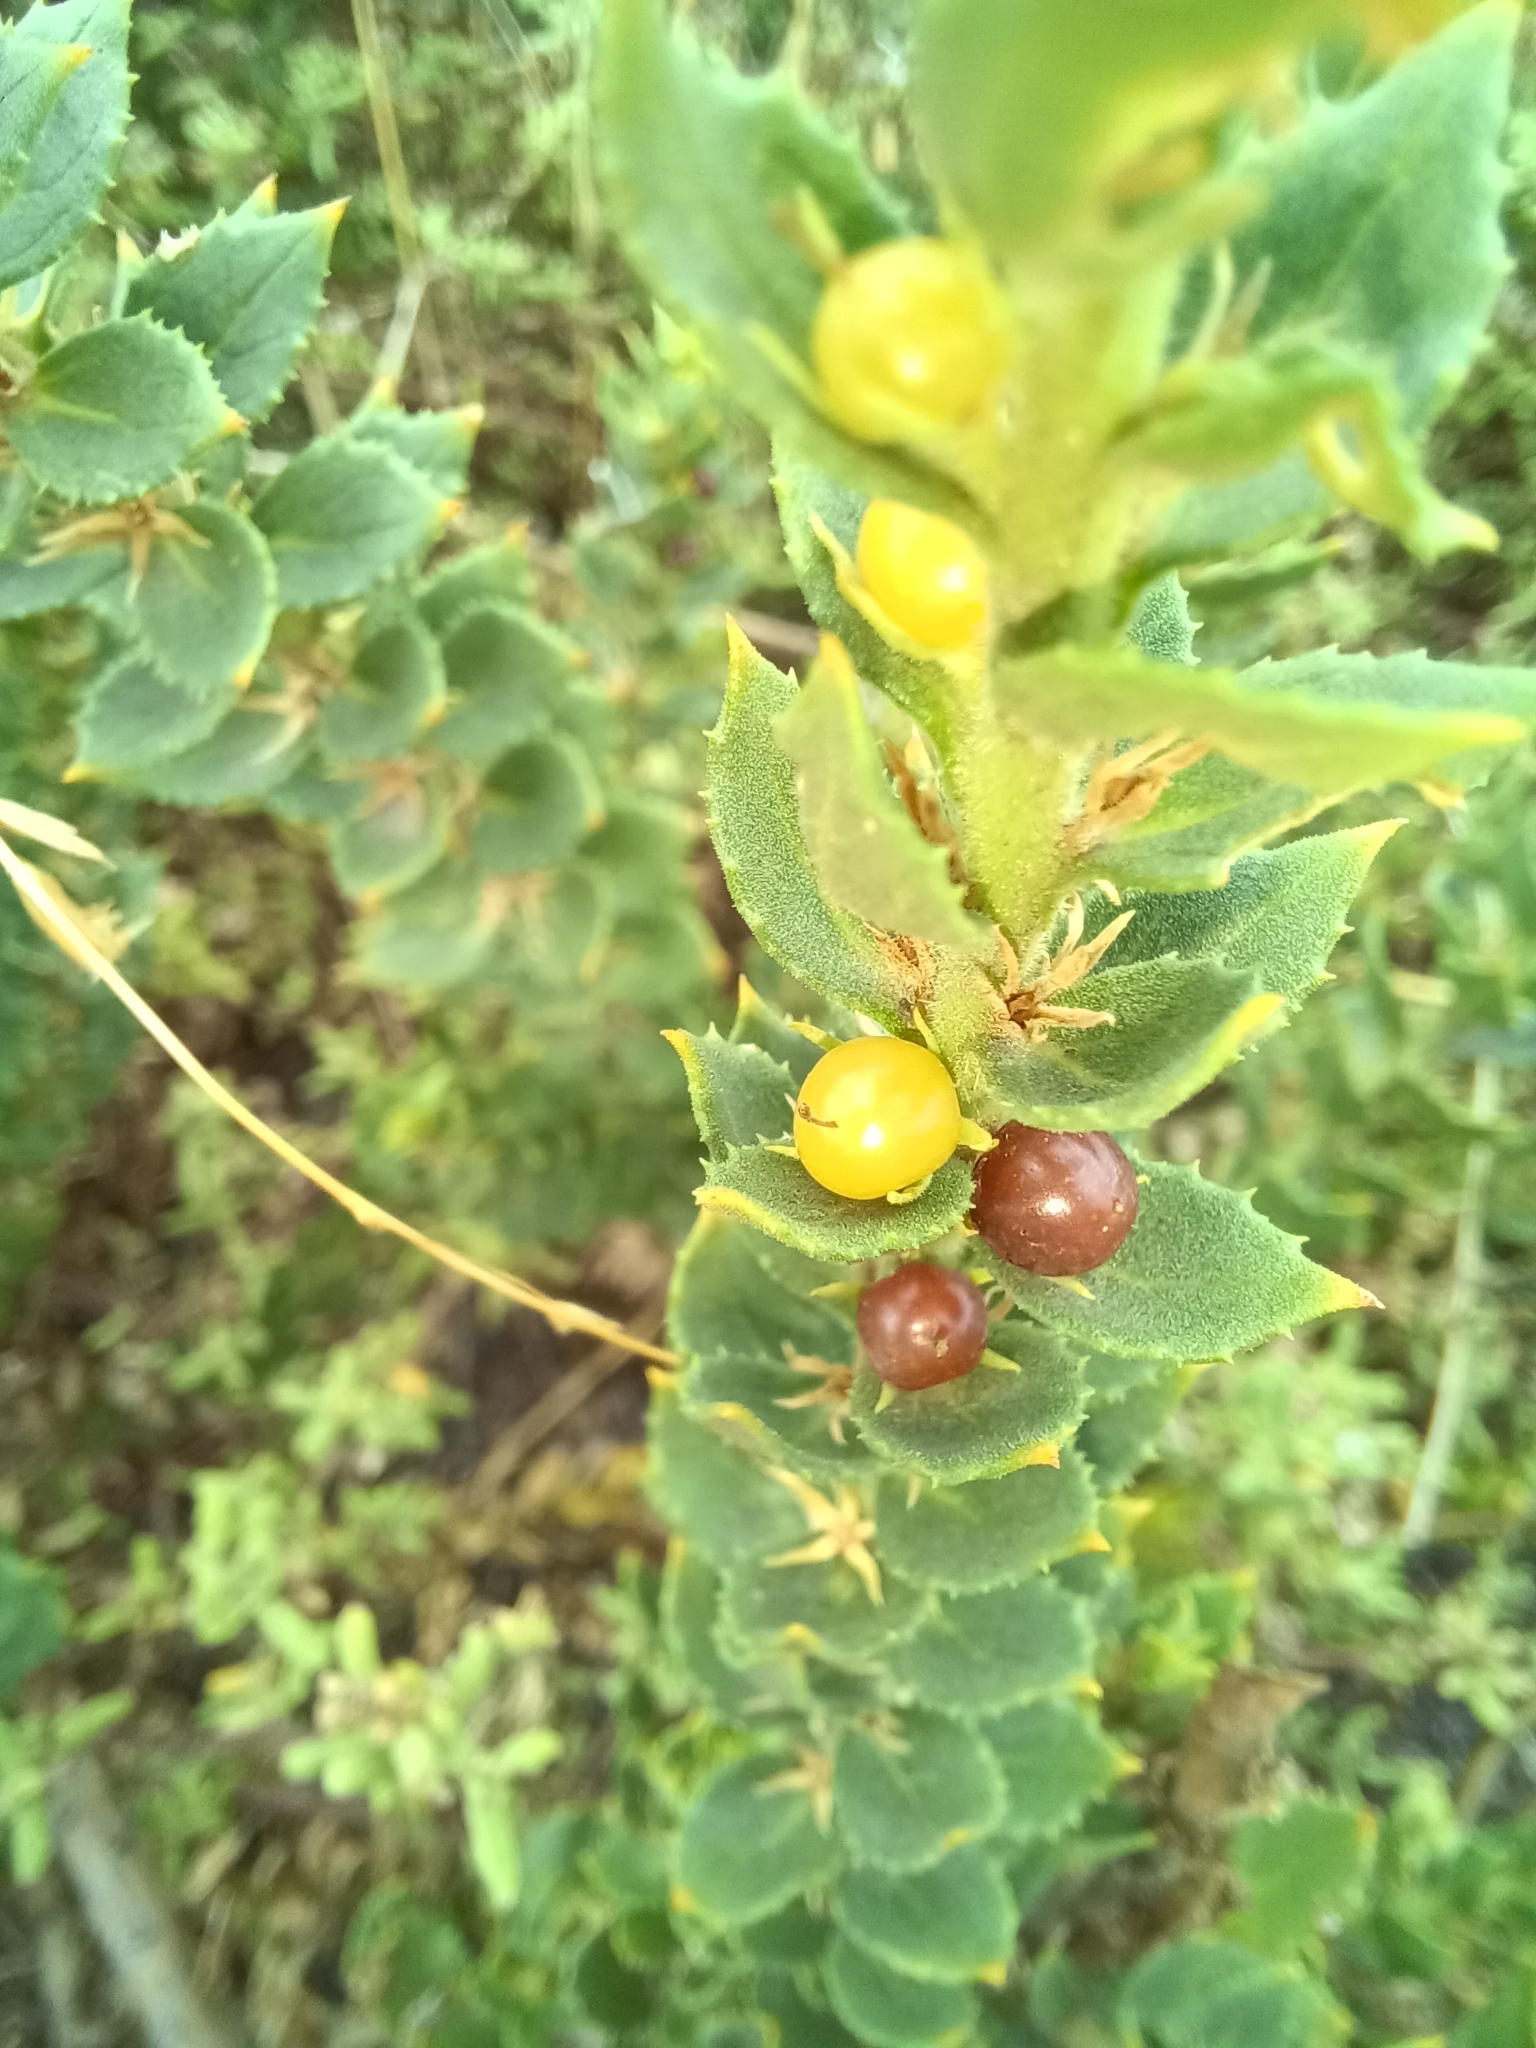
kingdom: Plantae
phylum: Tracheophyta
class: Magnoliopsida
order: Lamiales
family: Scrophulariaceae
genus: Oftia
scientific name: Oftia africana
